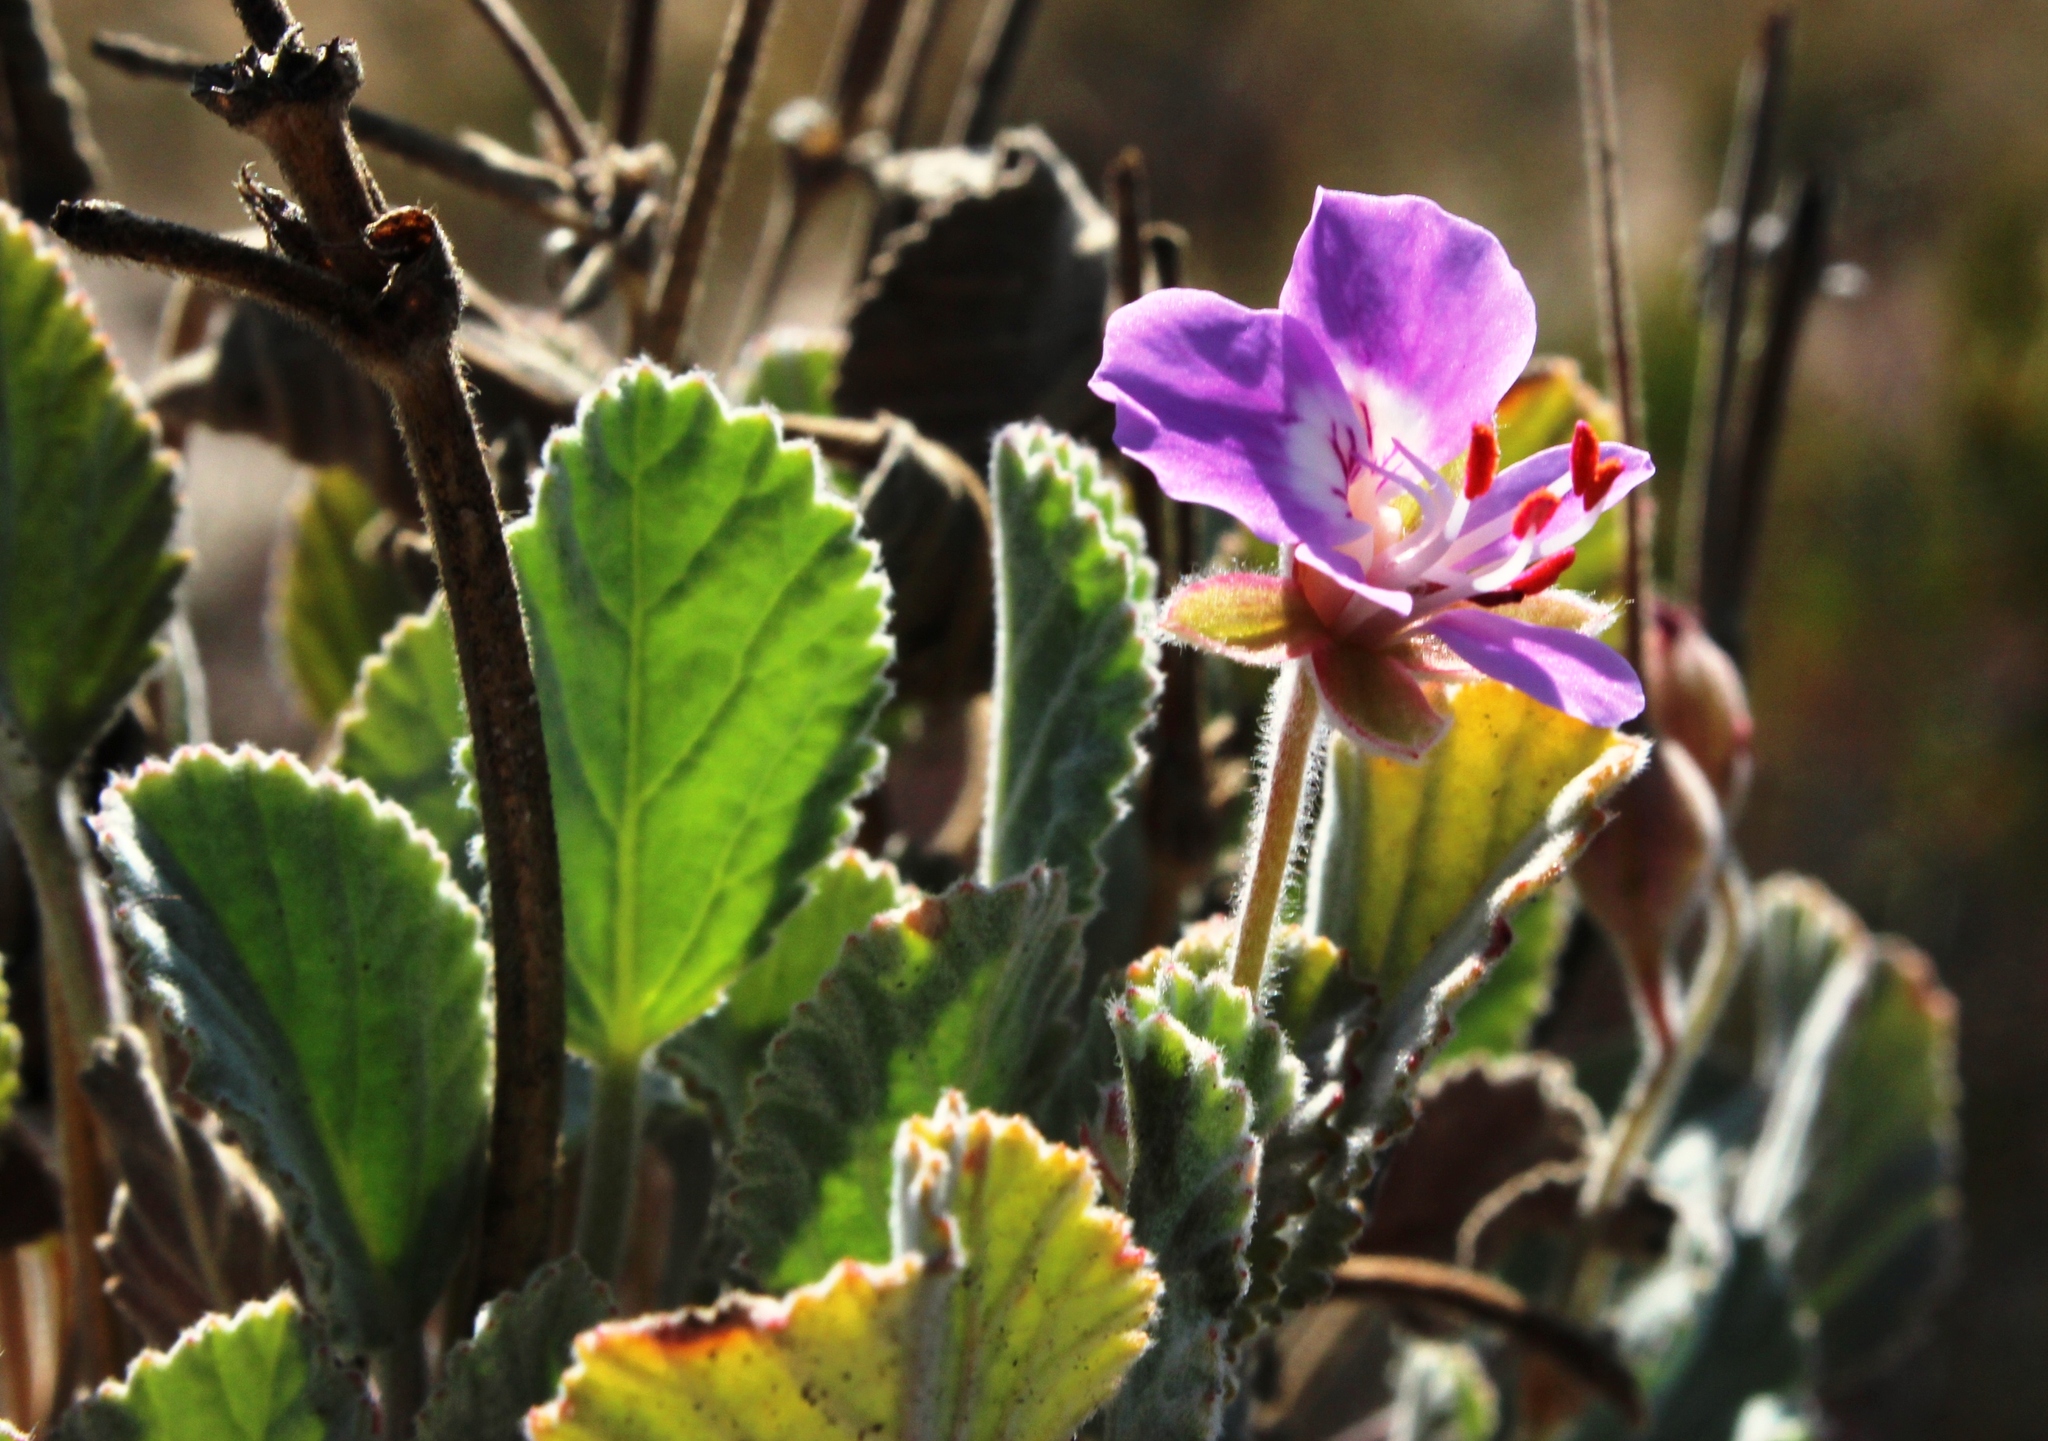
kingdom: Plantae
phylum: Tracheophyta
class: Magnoliopsida
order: Geraniales
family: Geraniaceae
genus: Pelargonium
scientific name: Pelargonium ovale
